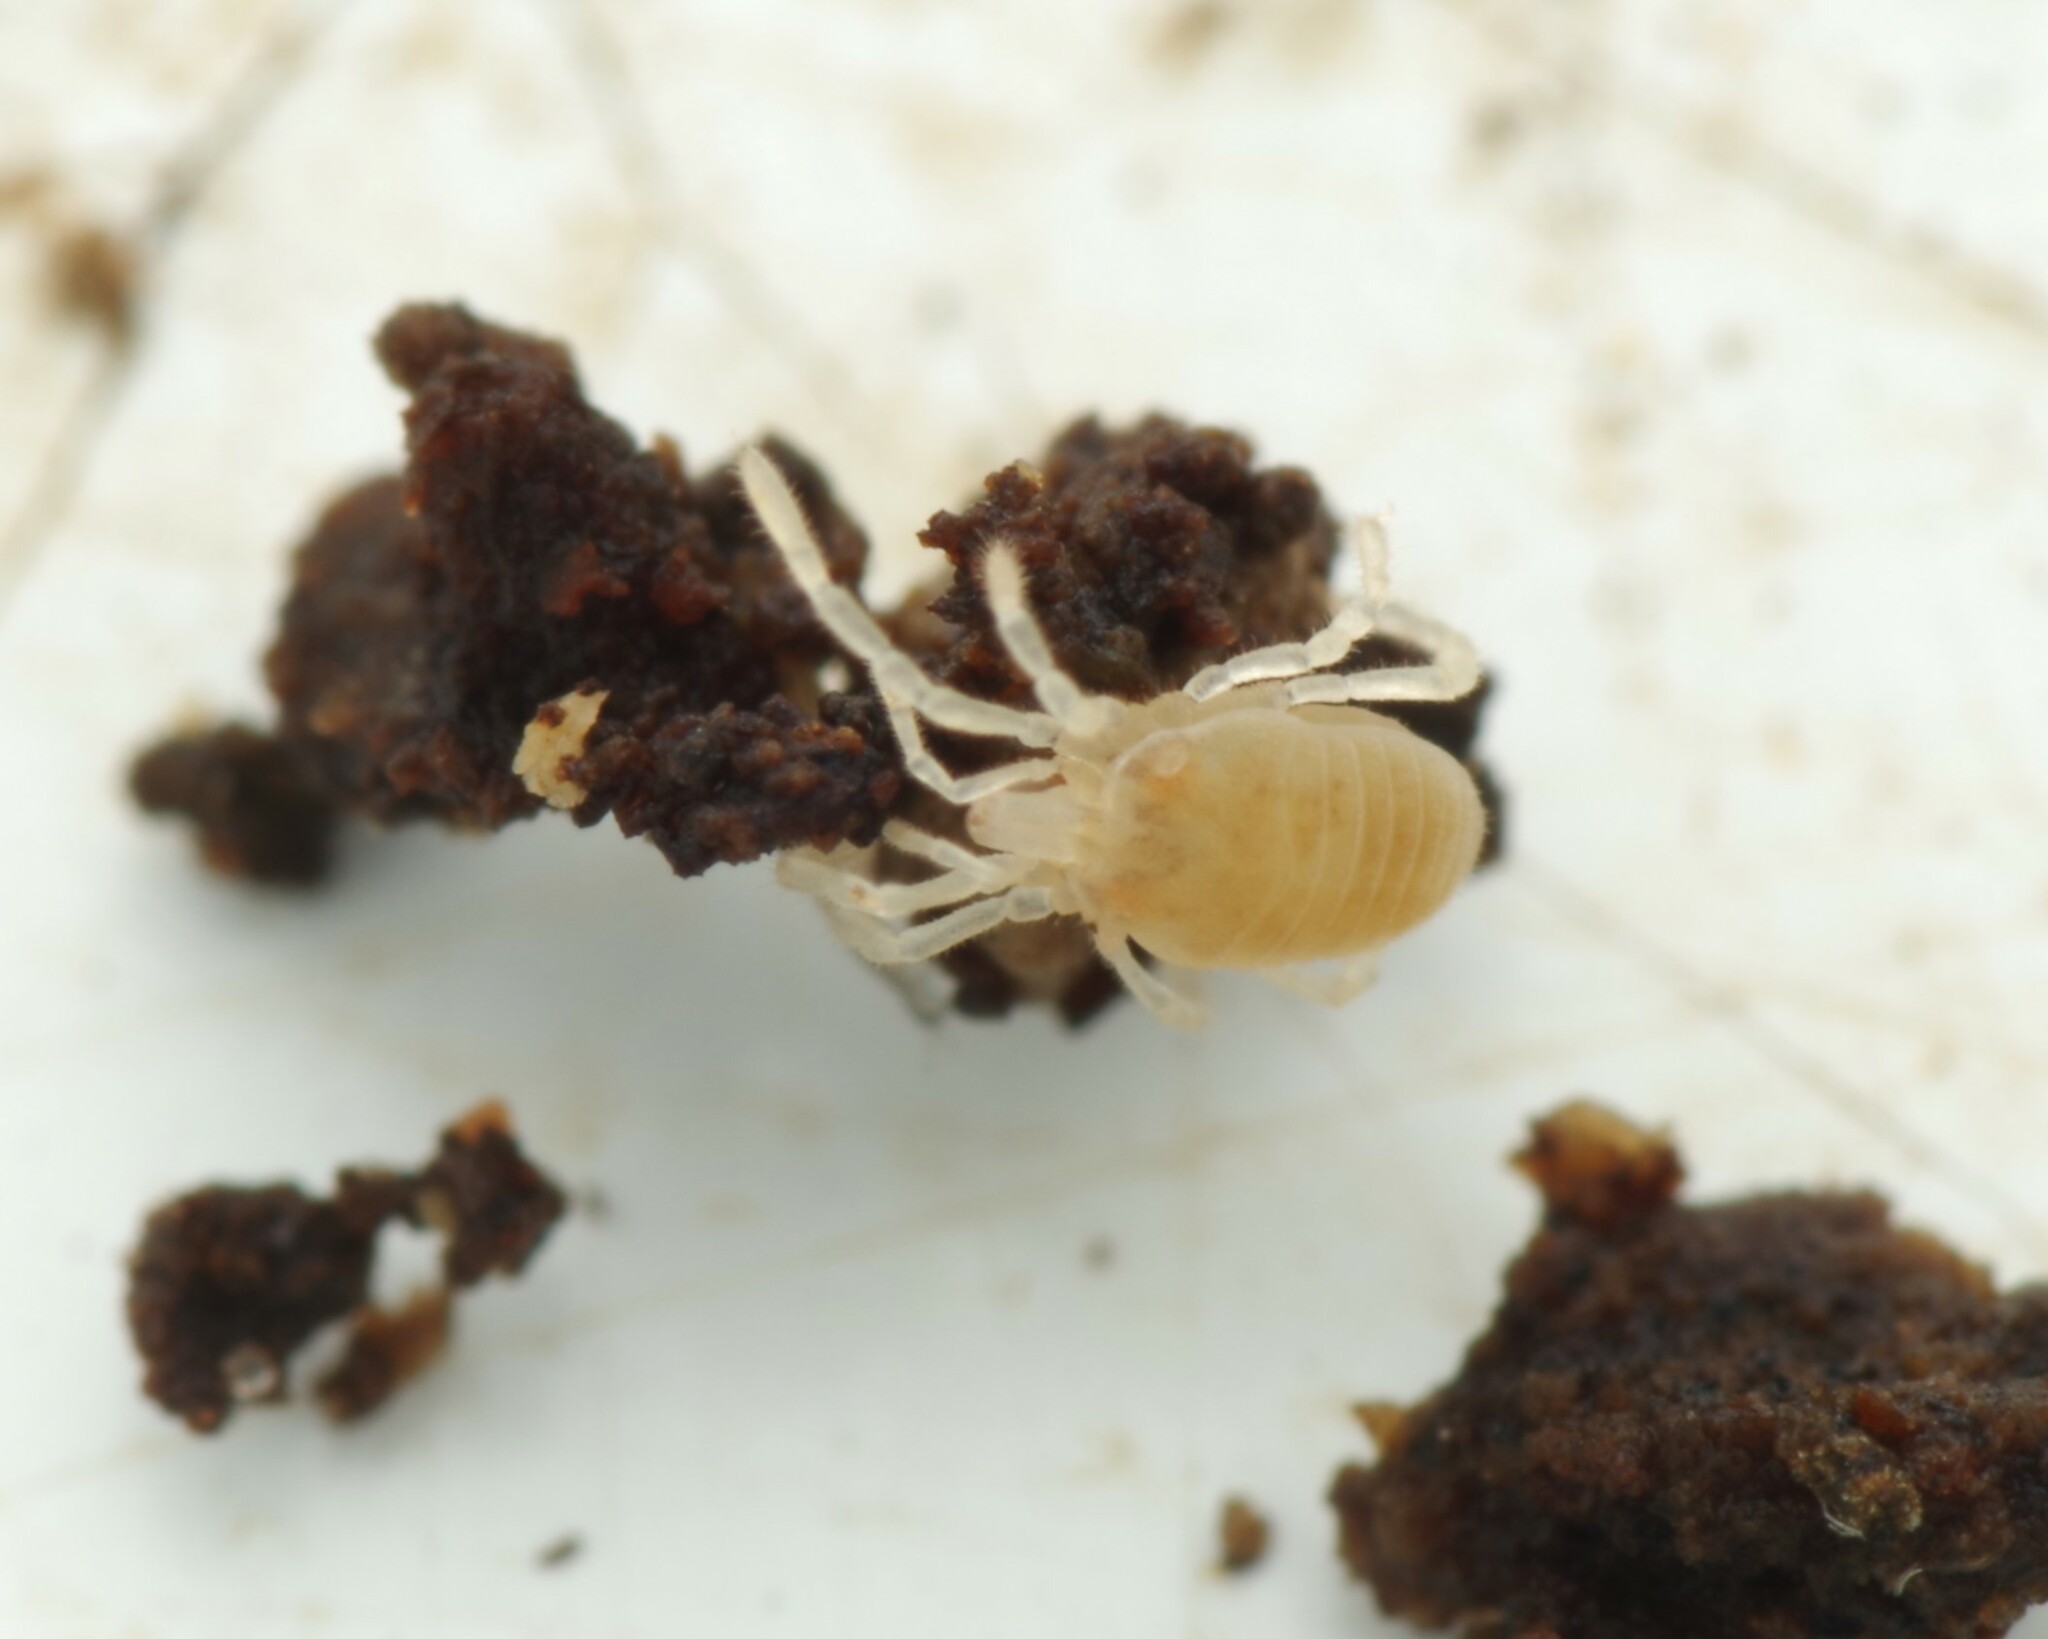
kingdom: Animalia
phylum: Arthropoda
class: Arachnida
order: Opiliones
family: Sironidae
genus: Siro
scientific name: Siro rubens
